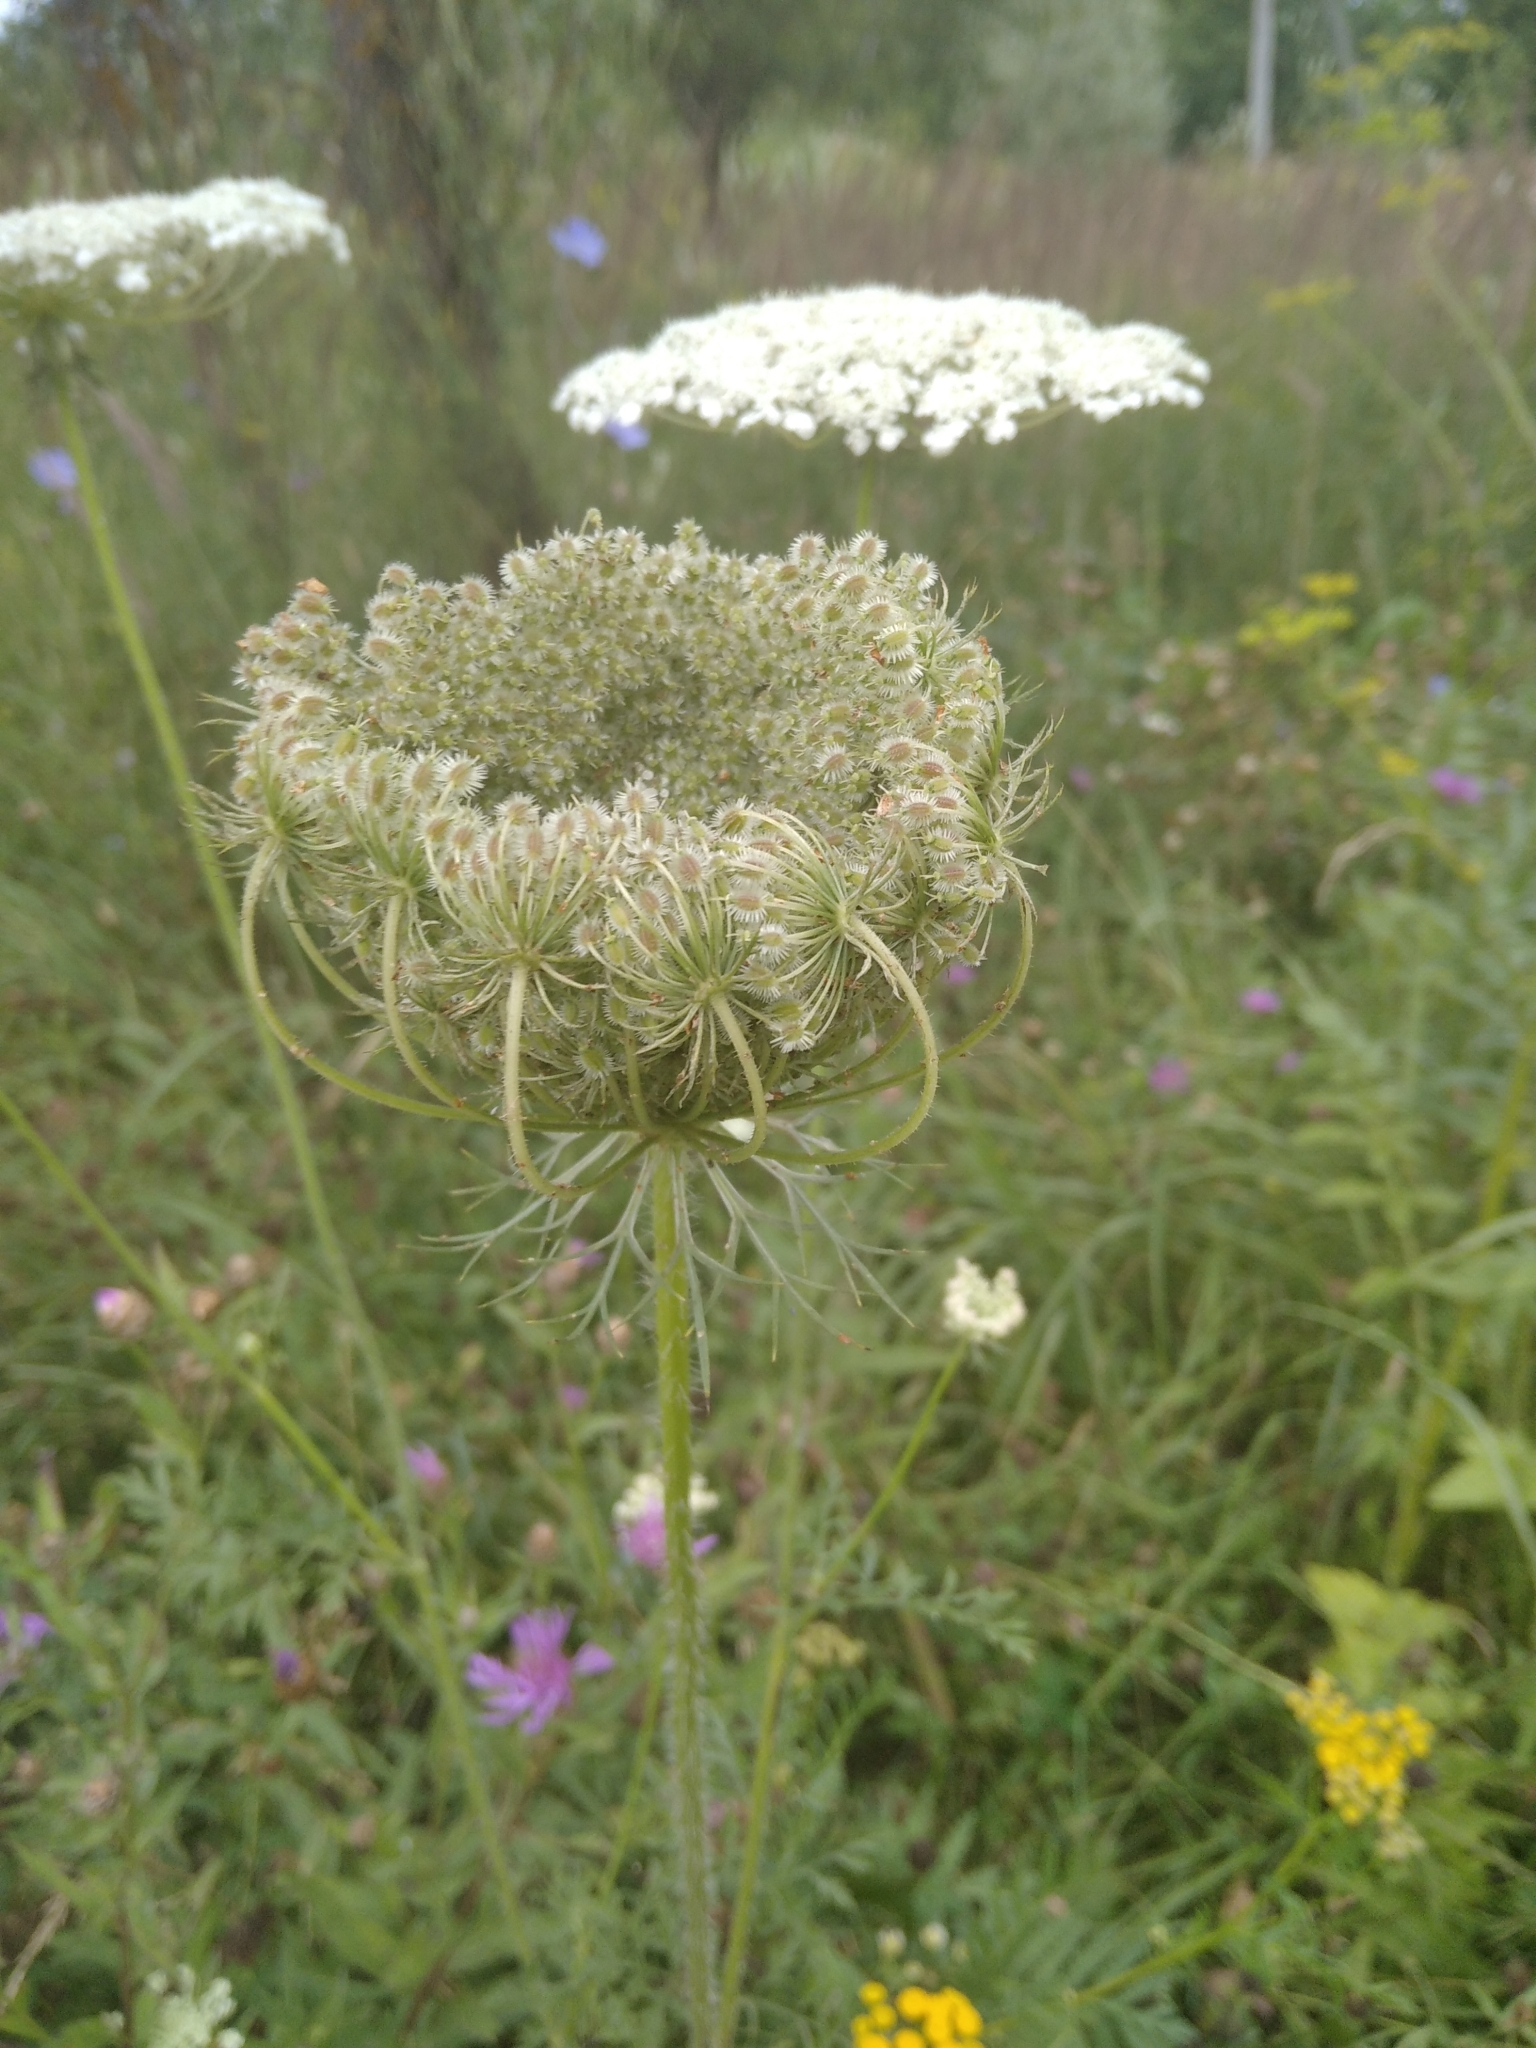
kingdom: Plantae
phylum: Tracheophyta
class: Magnoliopsida
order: Apiales
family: Apiaceae
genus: Daucus
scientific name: Daucus carota
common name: Wild carrot
